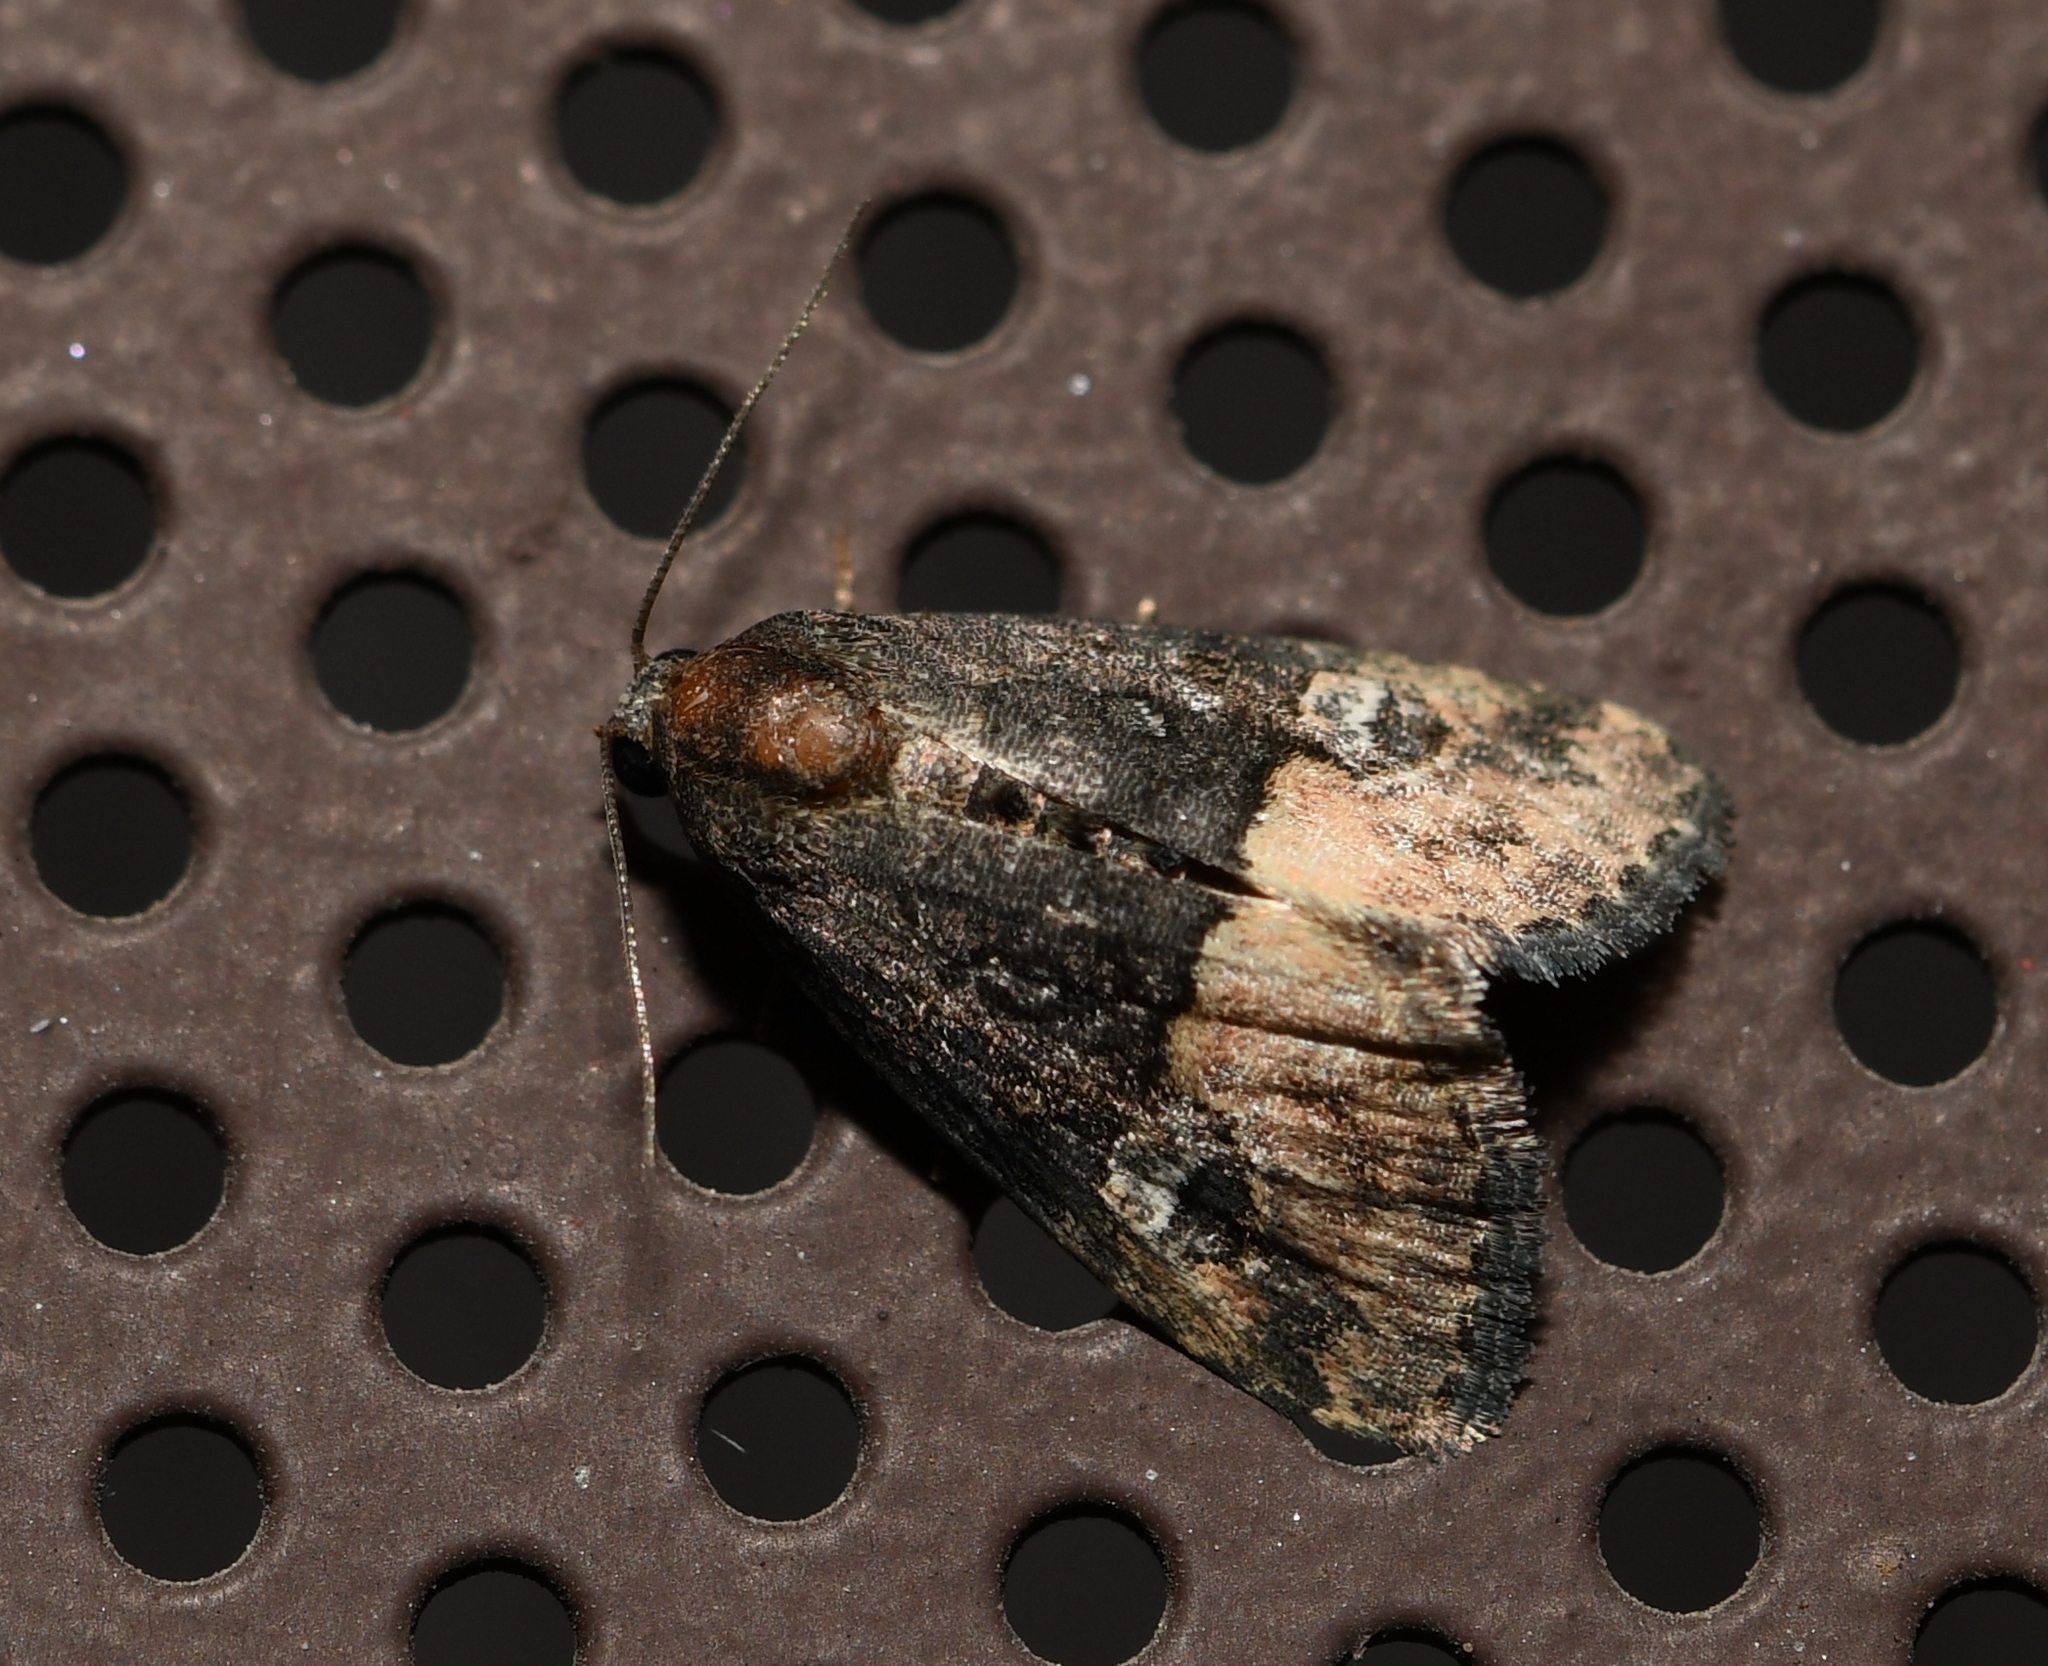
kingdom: Animalia
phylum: Arthropoda
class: Insecta
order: Lepidoptera
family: Noctuidae
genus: Ozarba
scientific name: Ozarba propera
